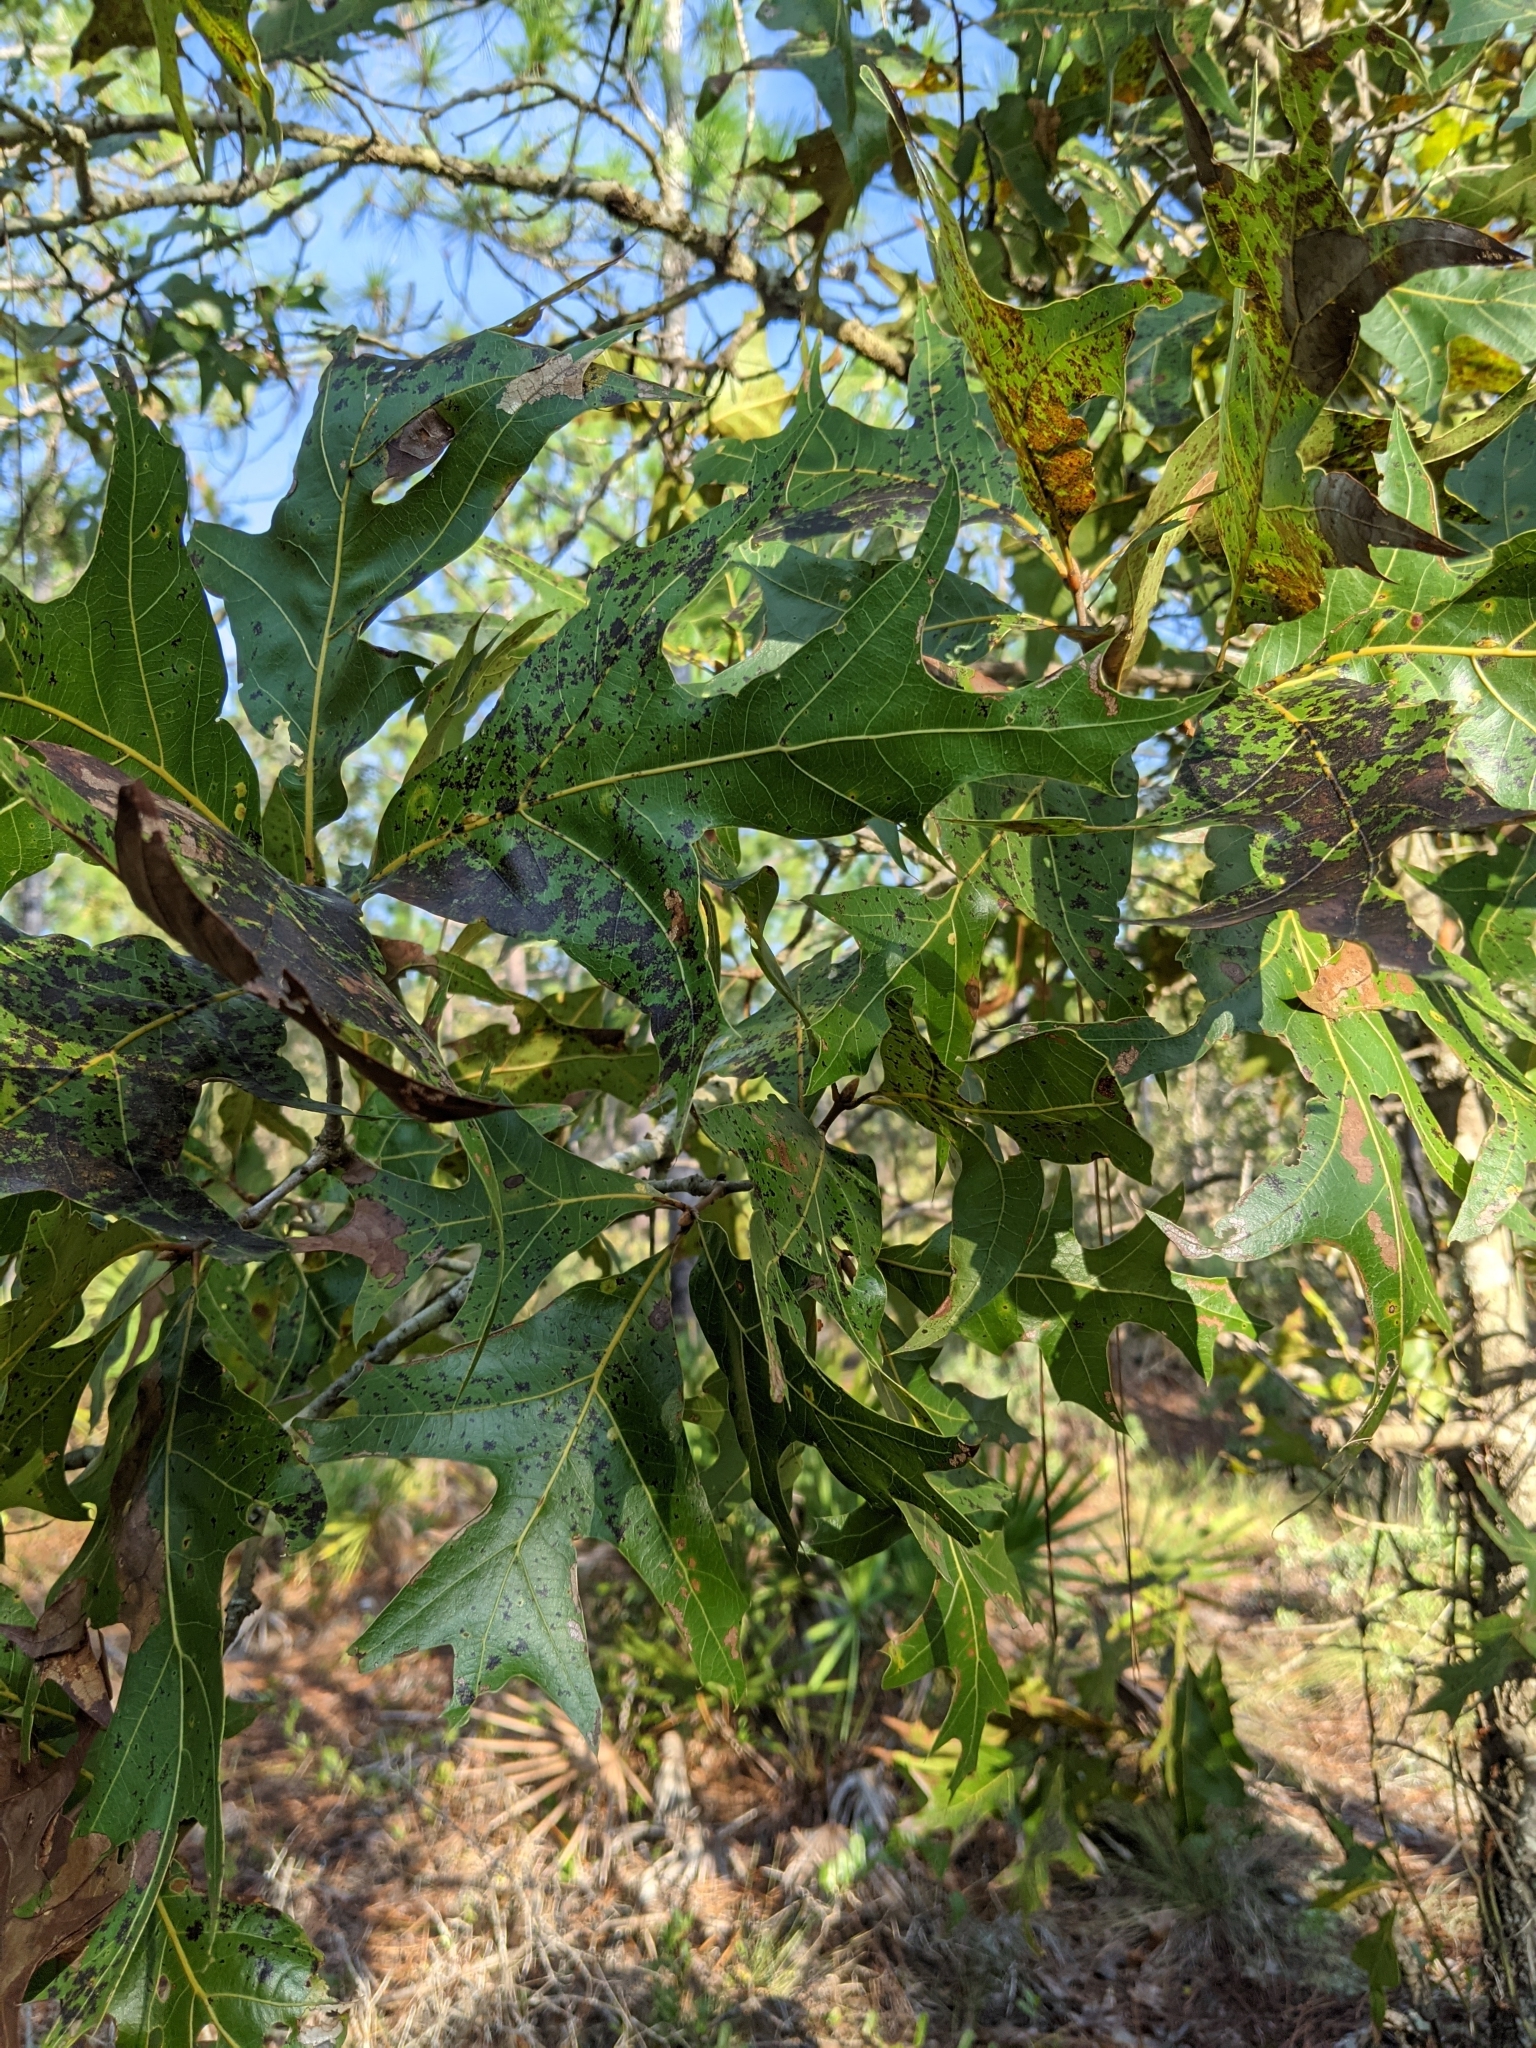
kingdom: Plantae
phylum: Tracheophyta
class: Magnoliopsida
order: Fagales
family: Fagaceae
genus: Quercus
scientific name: Quercus laevis
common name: Turkey oak
